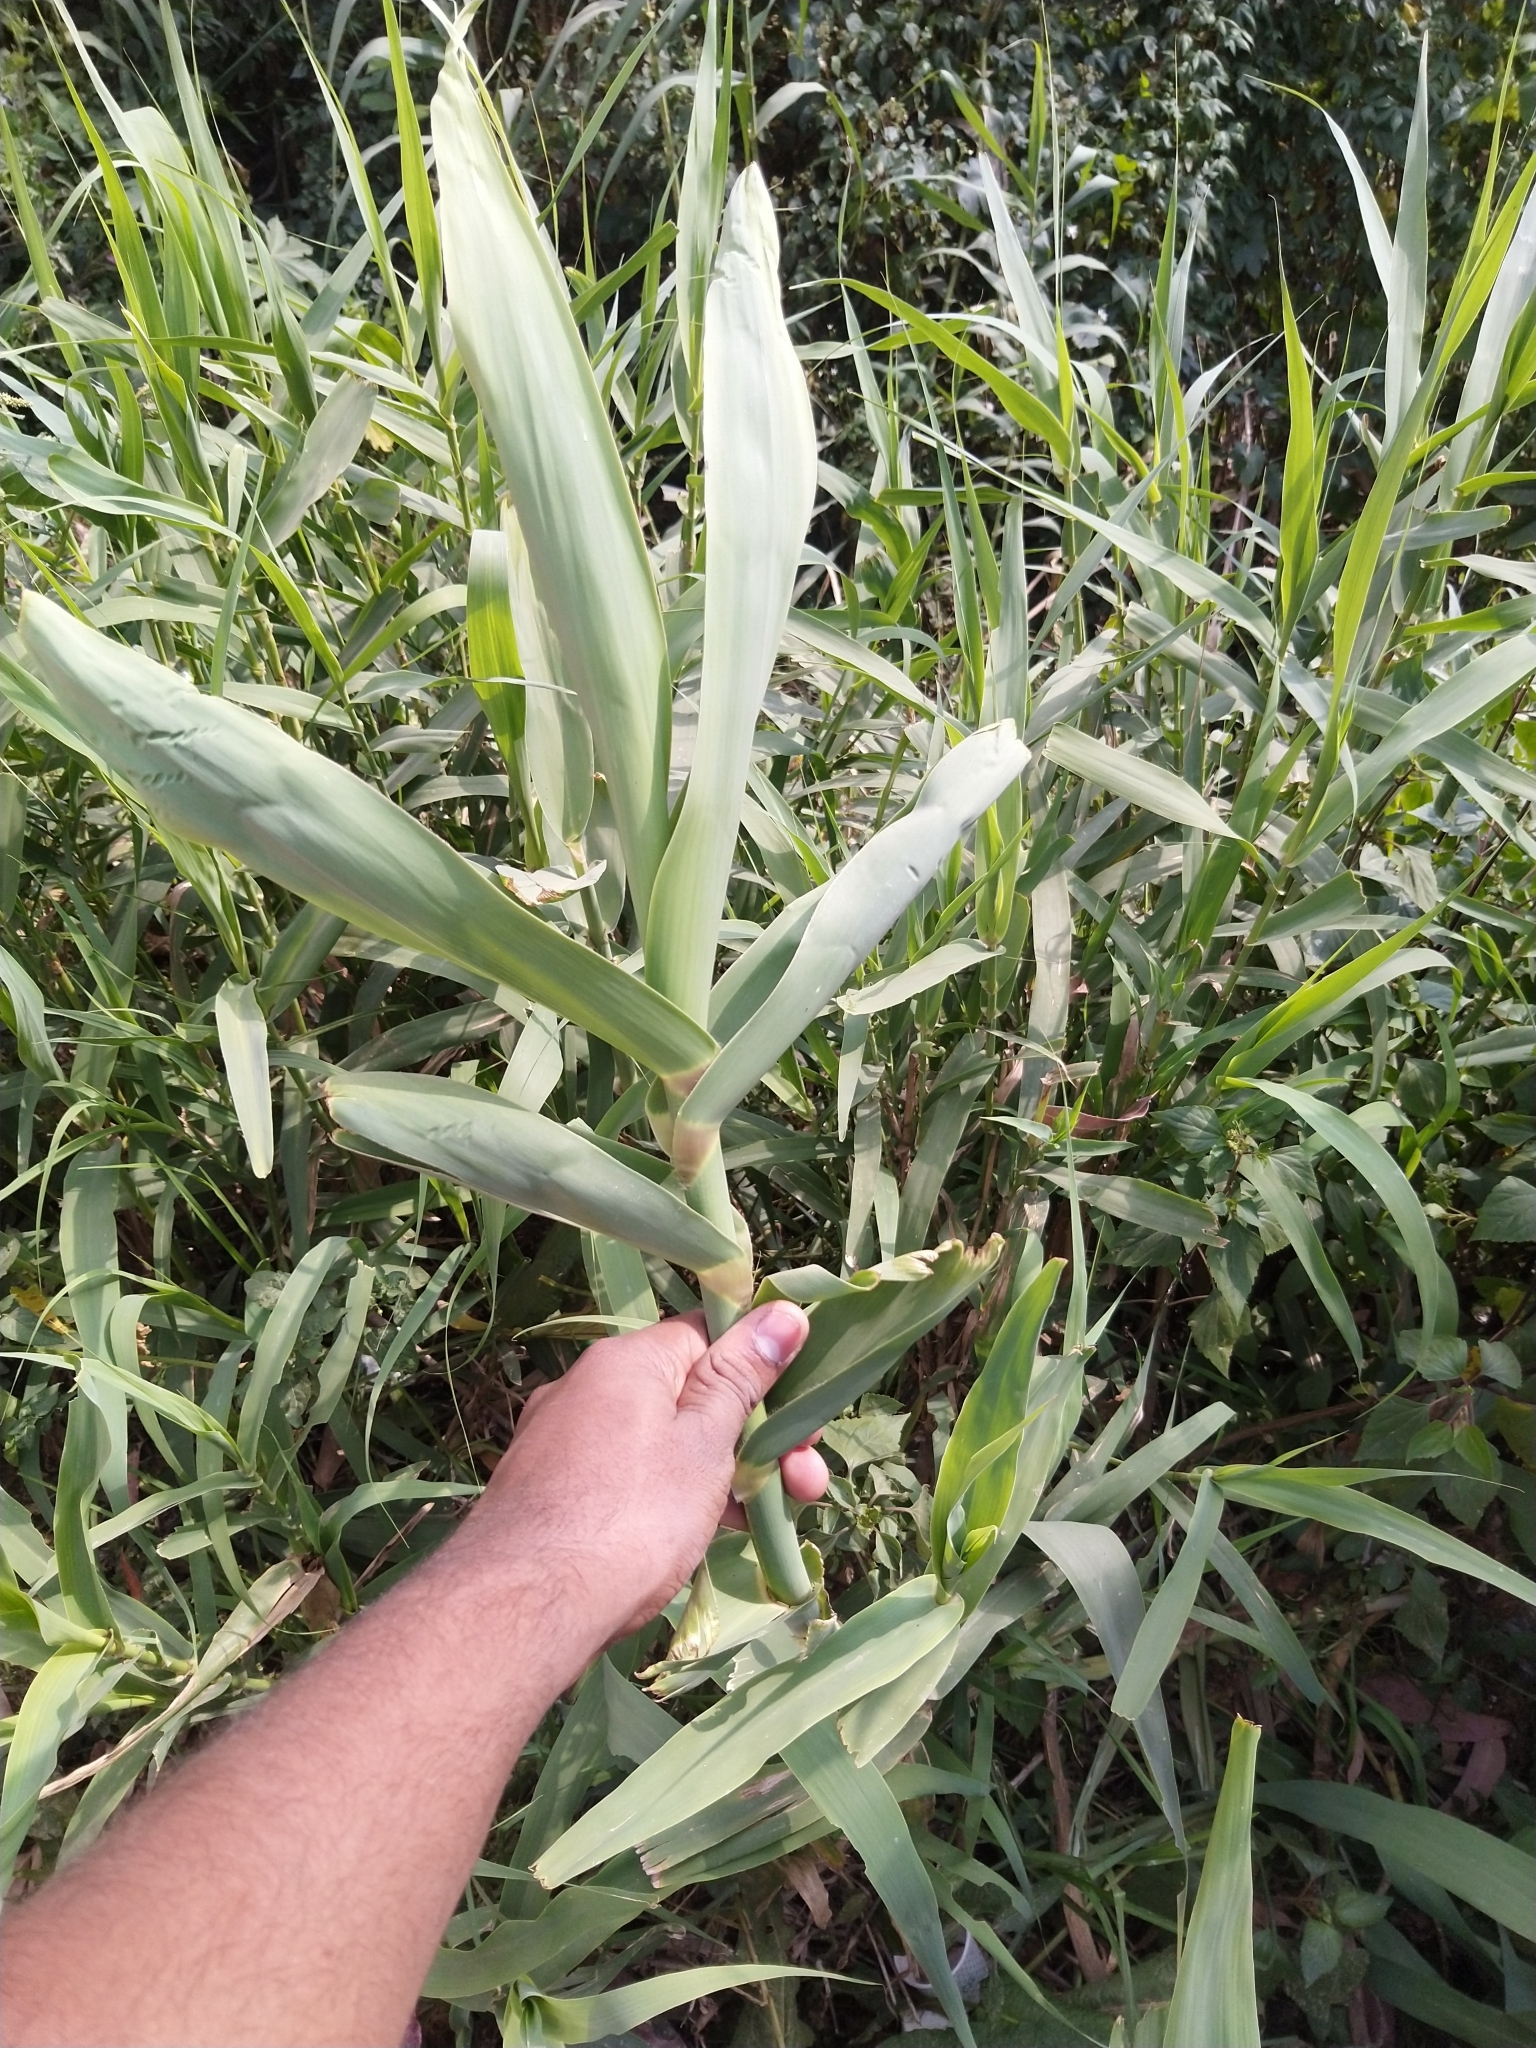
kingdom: Plantae
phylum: Tracheophyta
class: Liliopsida
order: Poales
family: Poaceae
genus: Arundo
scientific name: Arundo donax
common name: Giant reed
